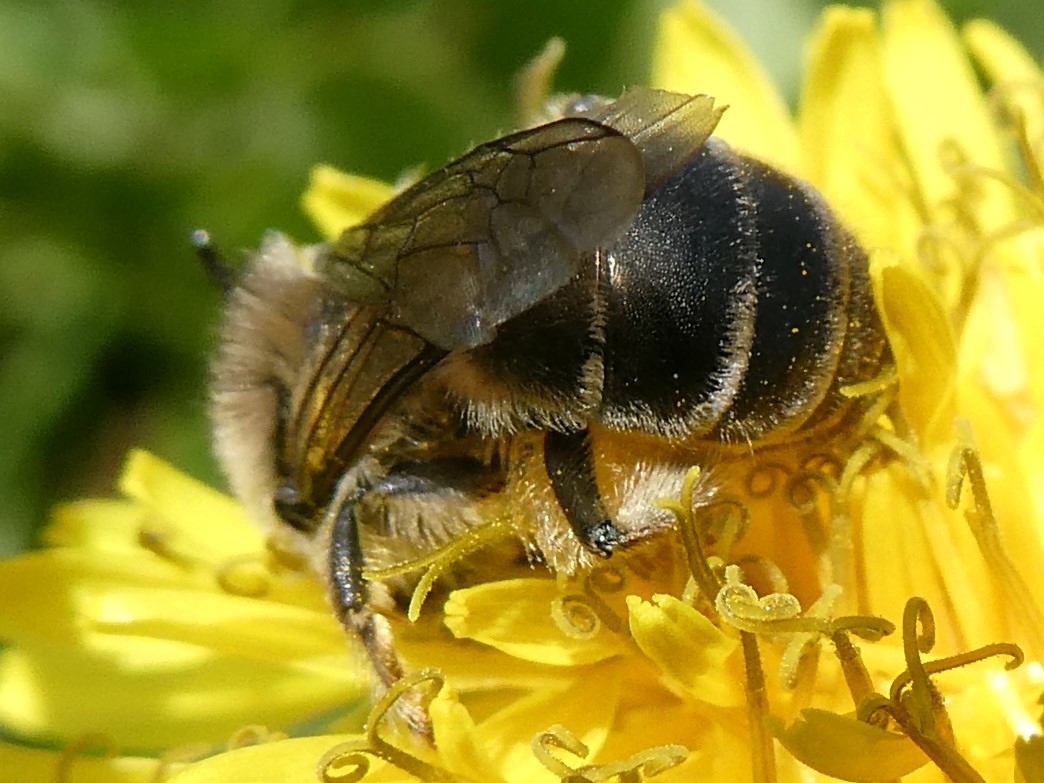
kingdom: Animalia
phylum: Arthropoda
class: Insecta
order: Hymenoptera
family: Colletidae
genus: Colletes
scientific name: Colletes inaequalis
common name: Unequal cellophane bee
